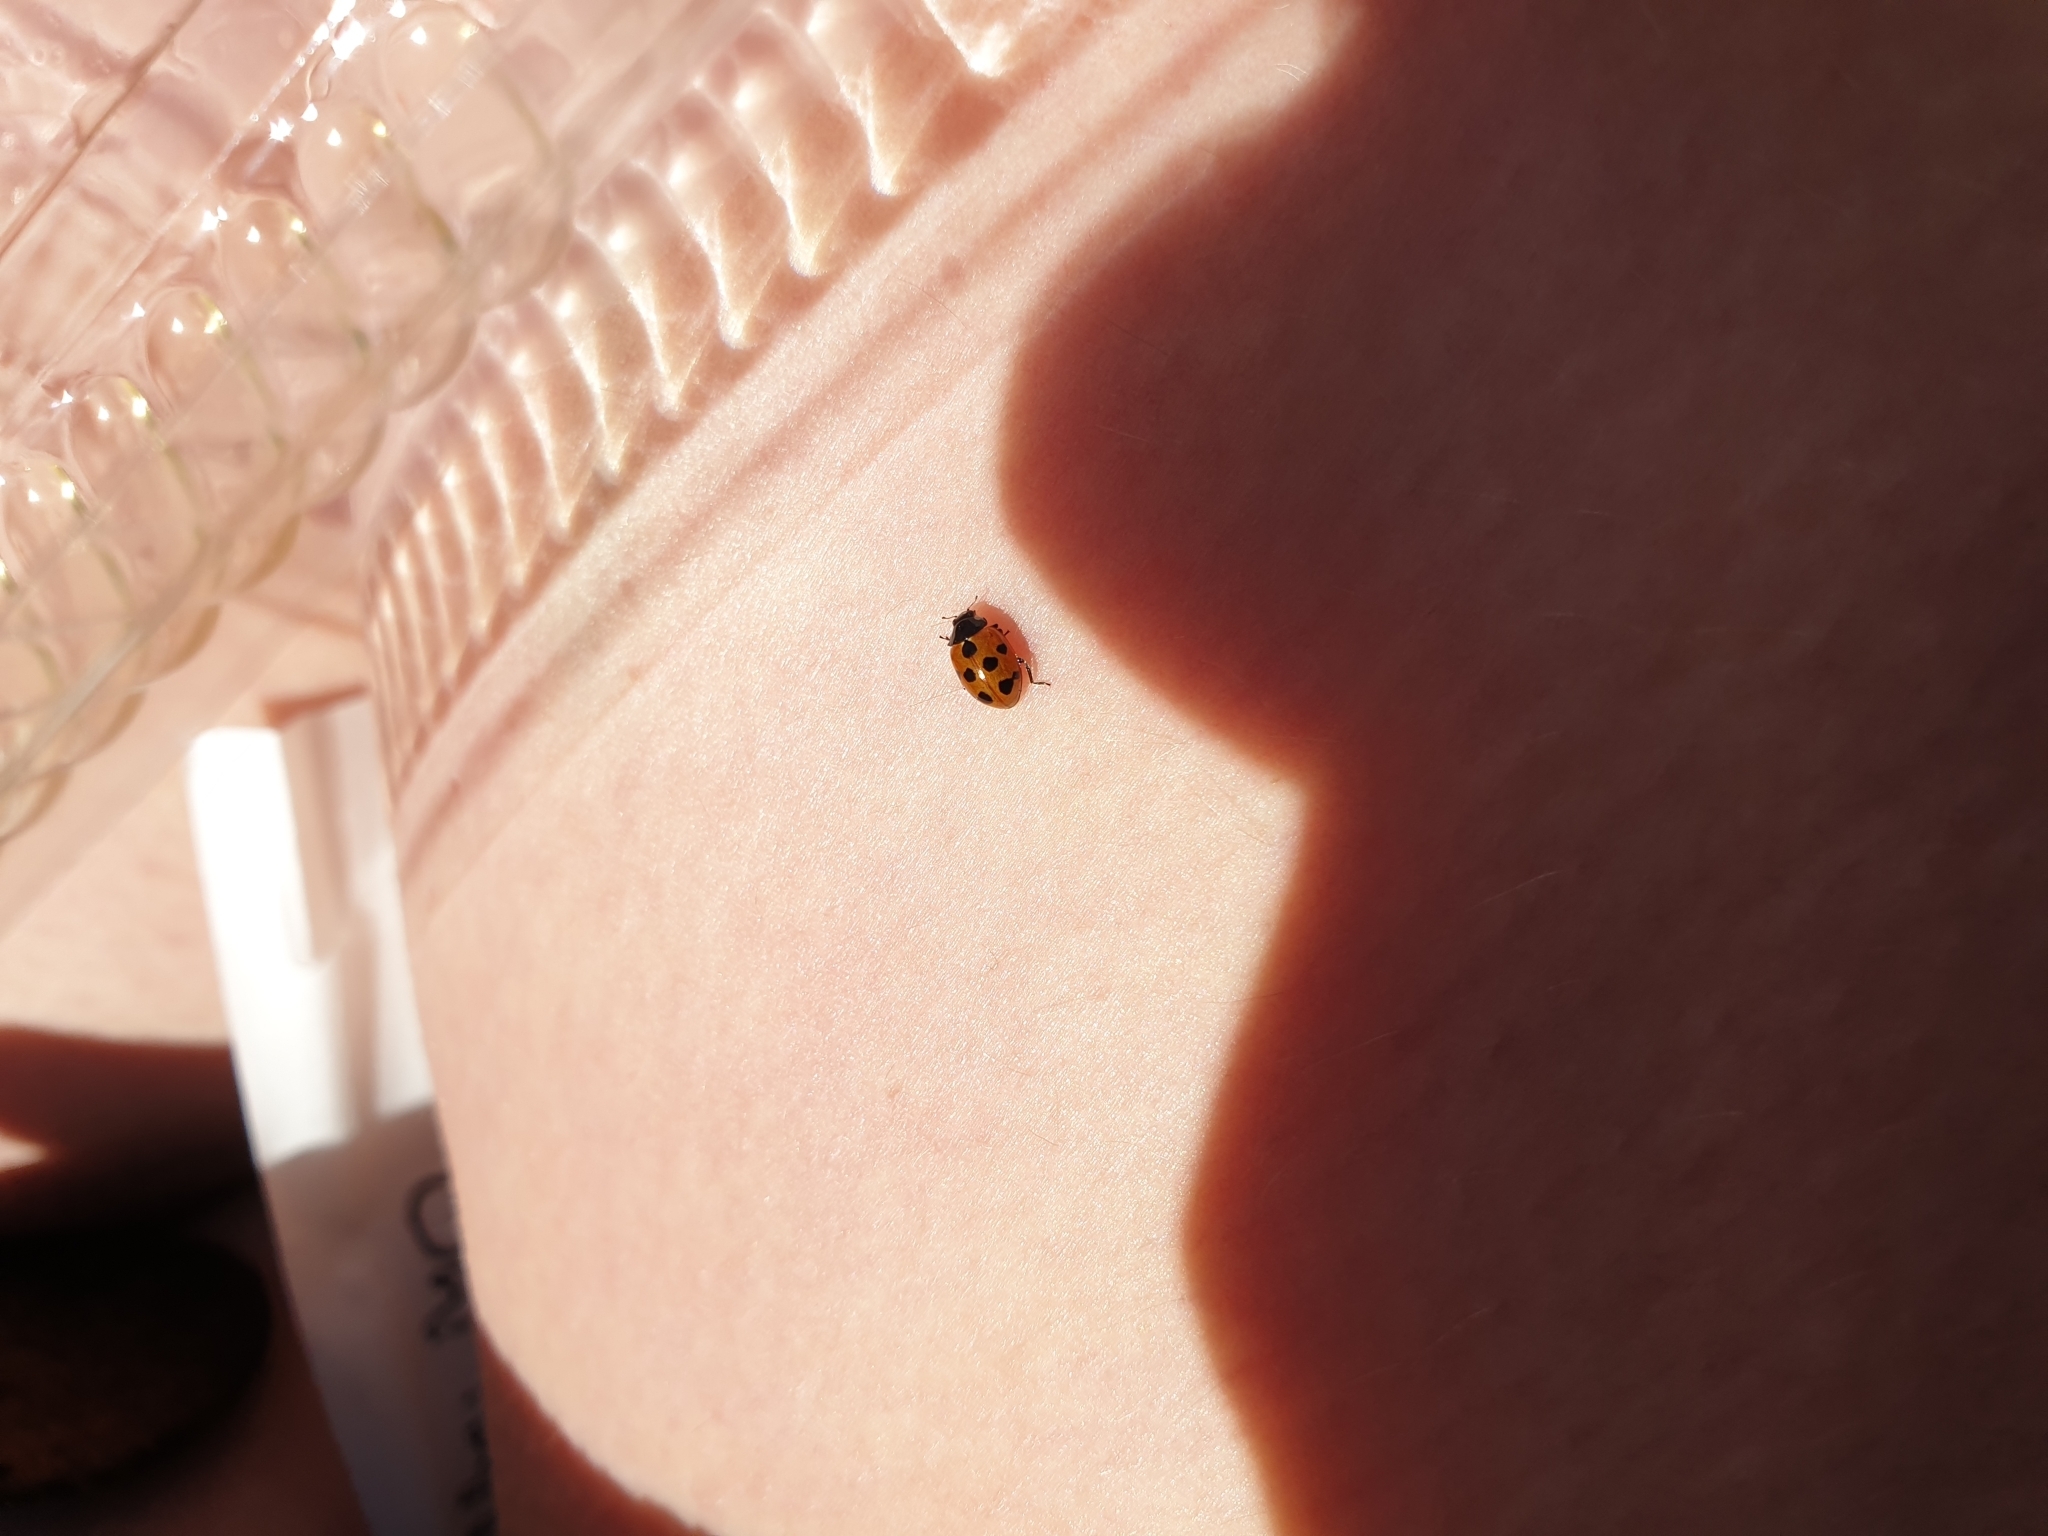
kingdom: Animalia
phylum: Arthropoda
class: Insecta
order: Coleoptera
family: Coccinellidae
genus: Coccinella
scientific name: Coccinella undecimpunctata
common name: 11-spot ladybird
